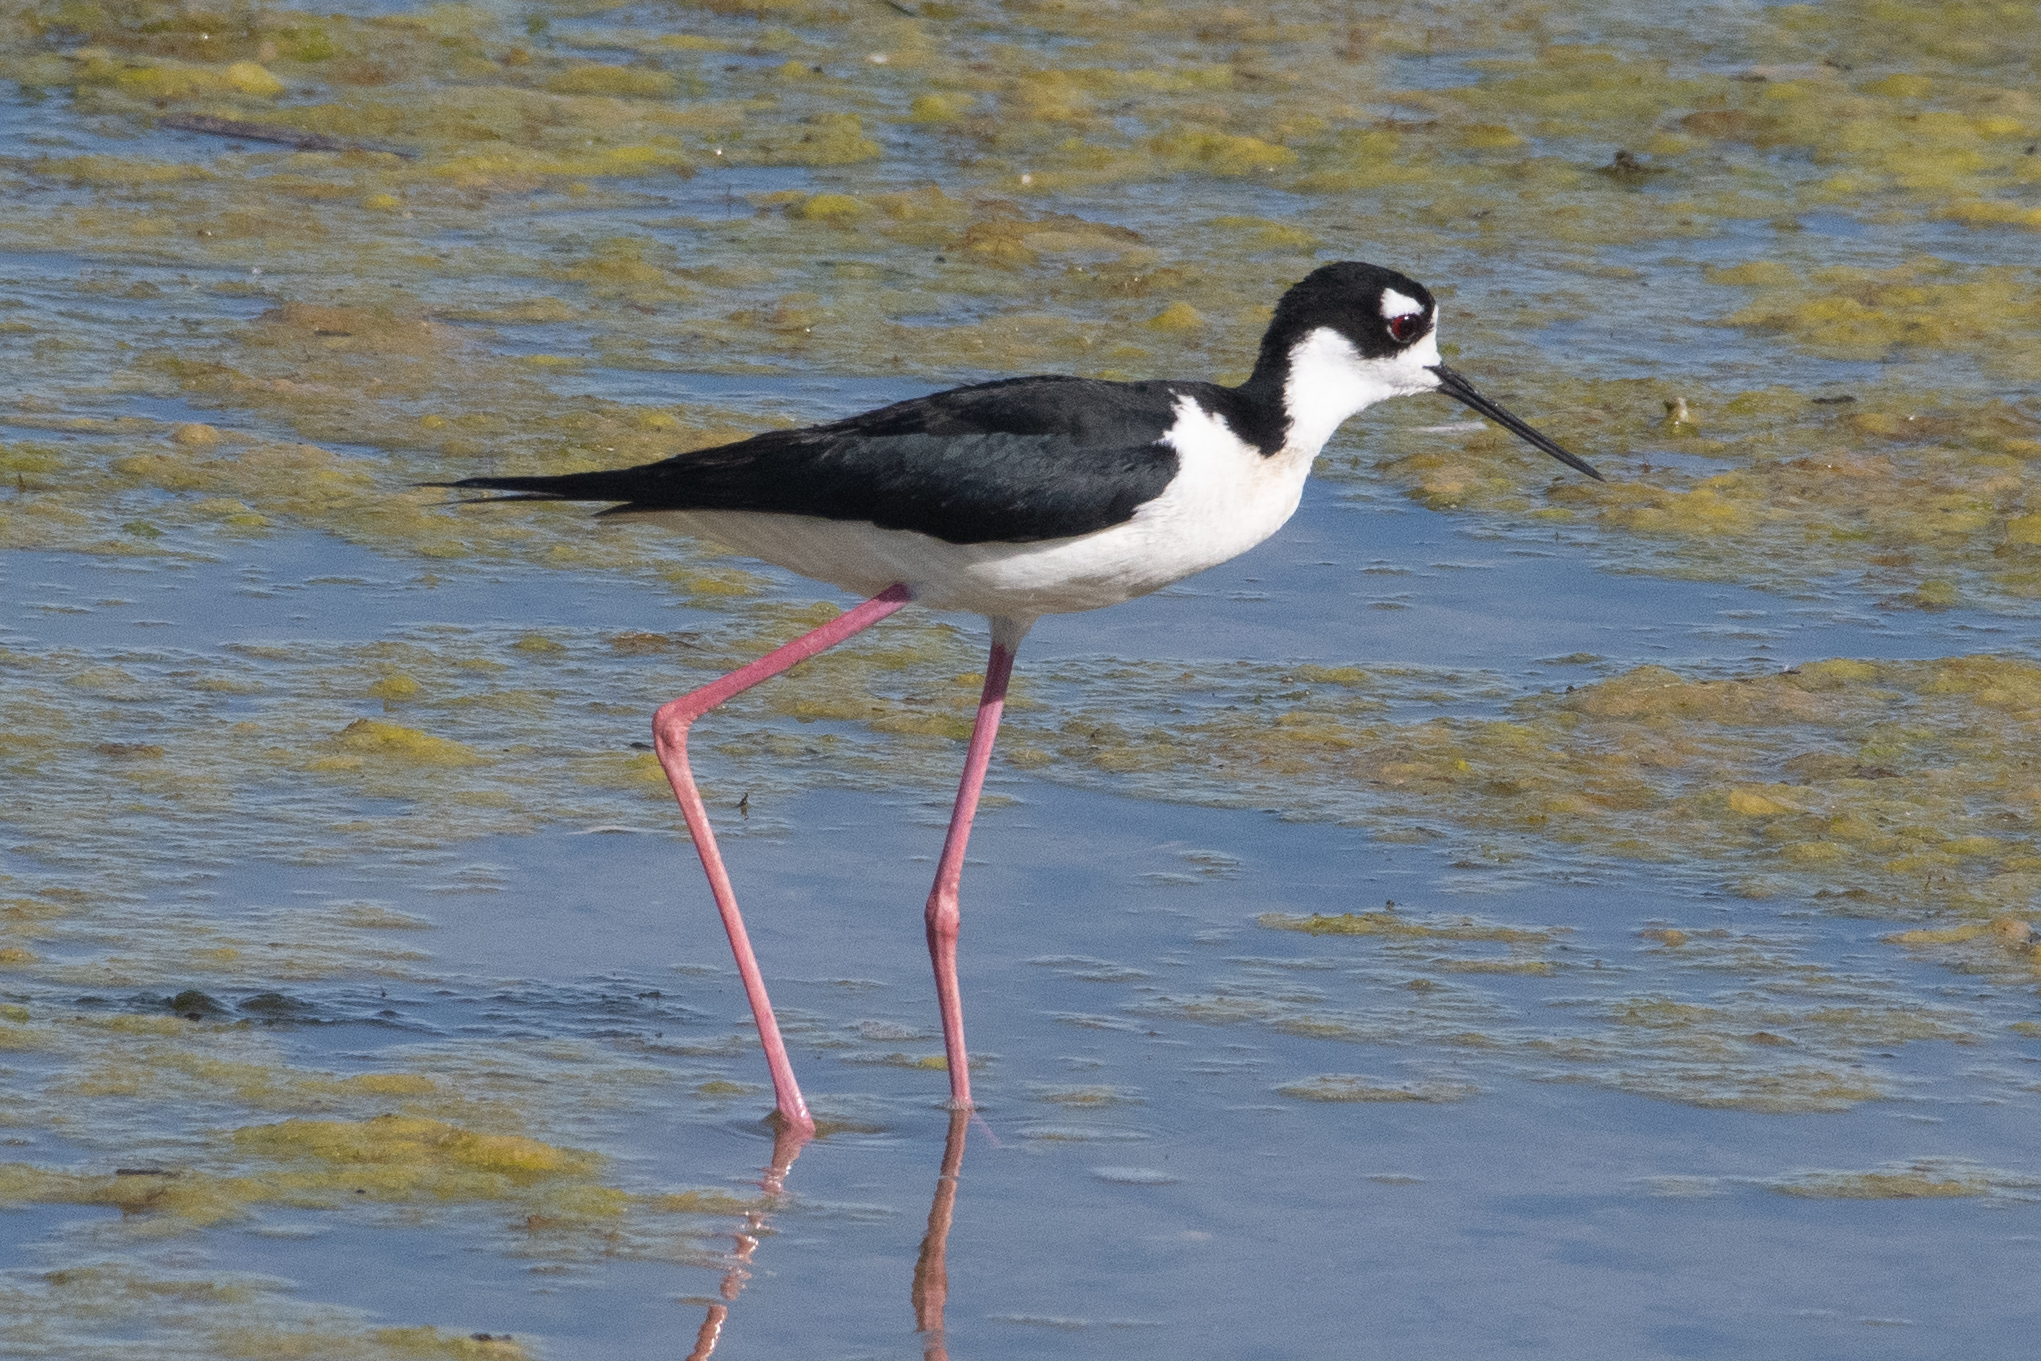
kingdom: Animalia
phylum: Chordata
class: Aves
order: Charadriiformes
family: Recurvirostridae
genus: Himantopus
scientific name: Himantopus mexicanus
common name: Black-necked stilt
